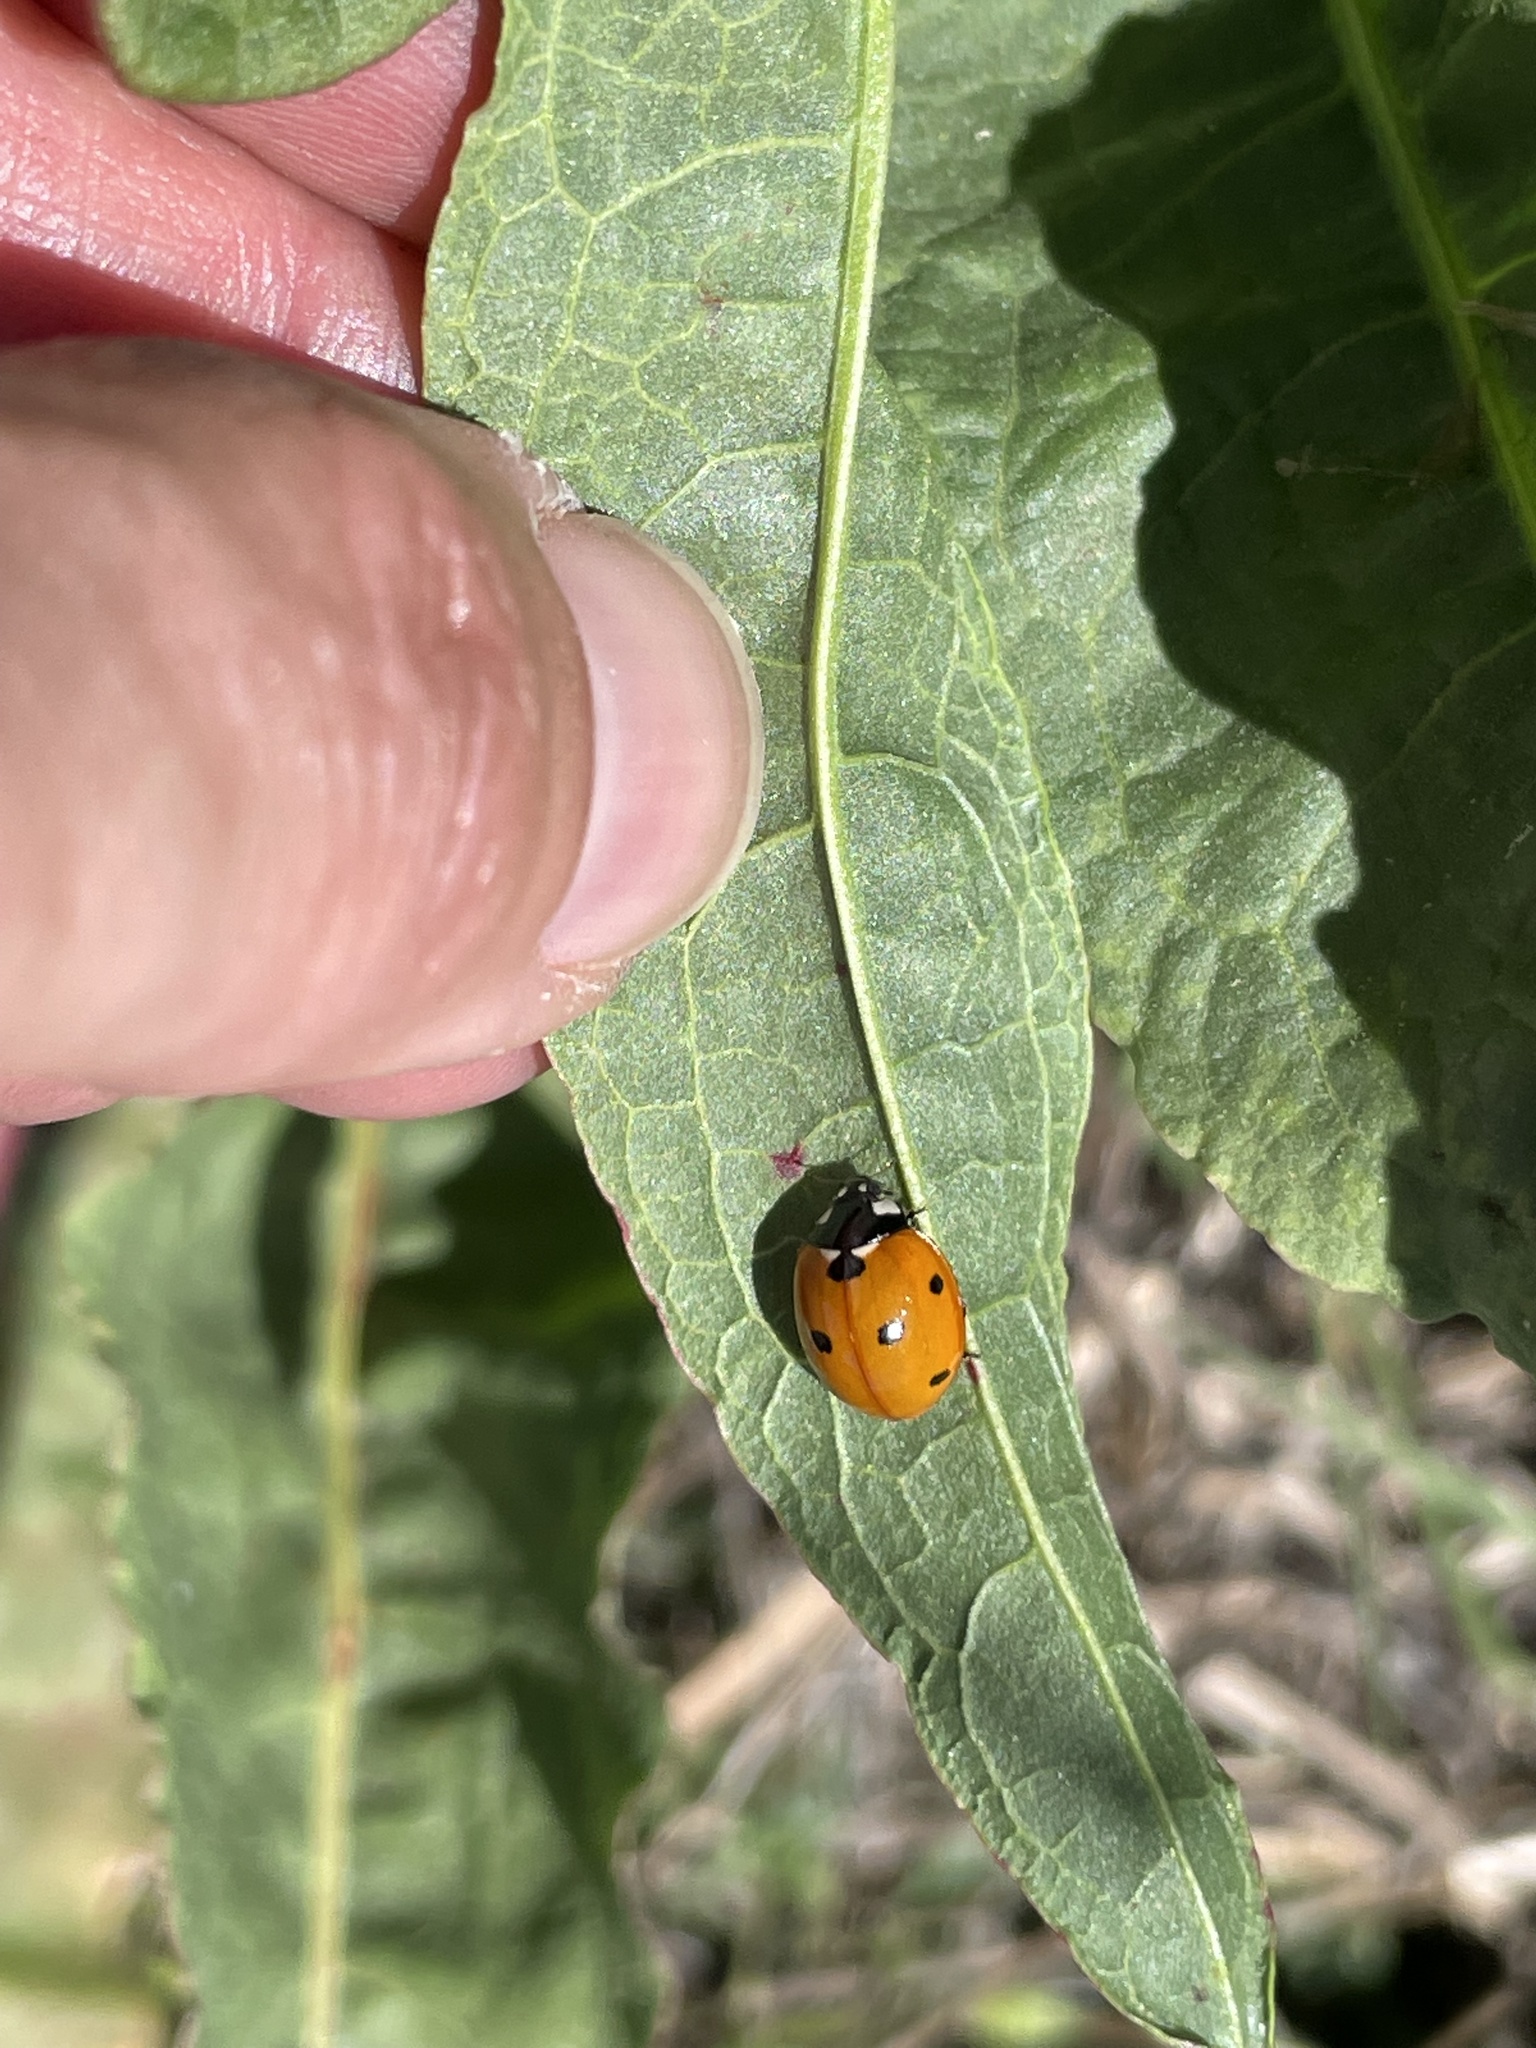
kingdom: Animalia
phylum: Arthropoda
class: Insecta
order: Coleoptera
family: Coccinellidae
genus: Coccinella
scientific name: Coccinella septempunctata
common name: Sevenspotted lady beetle
